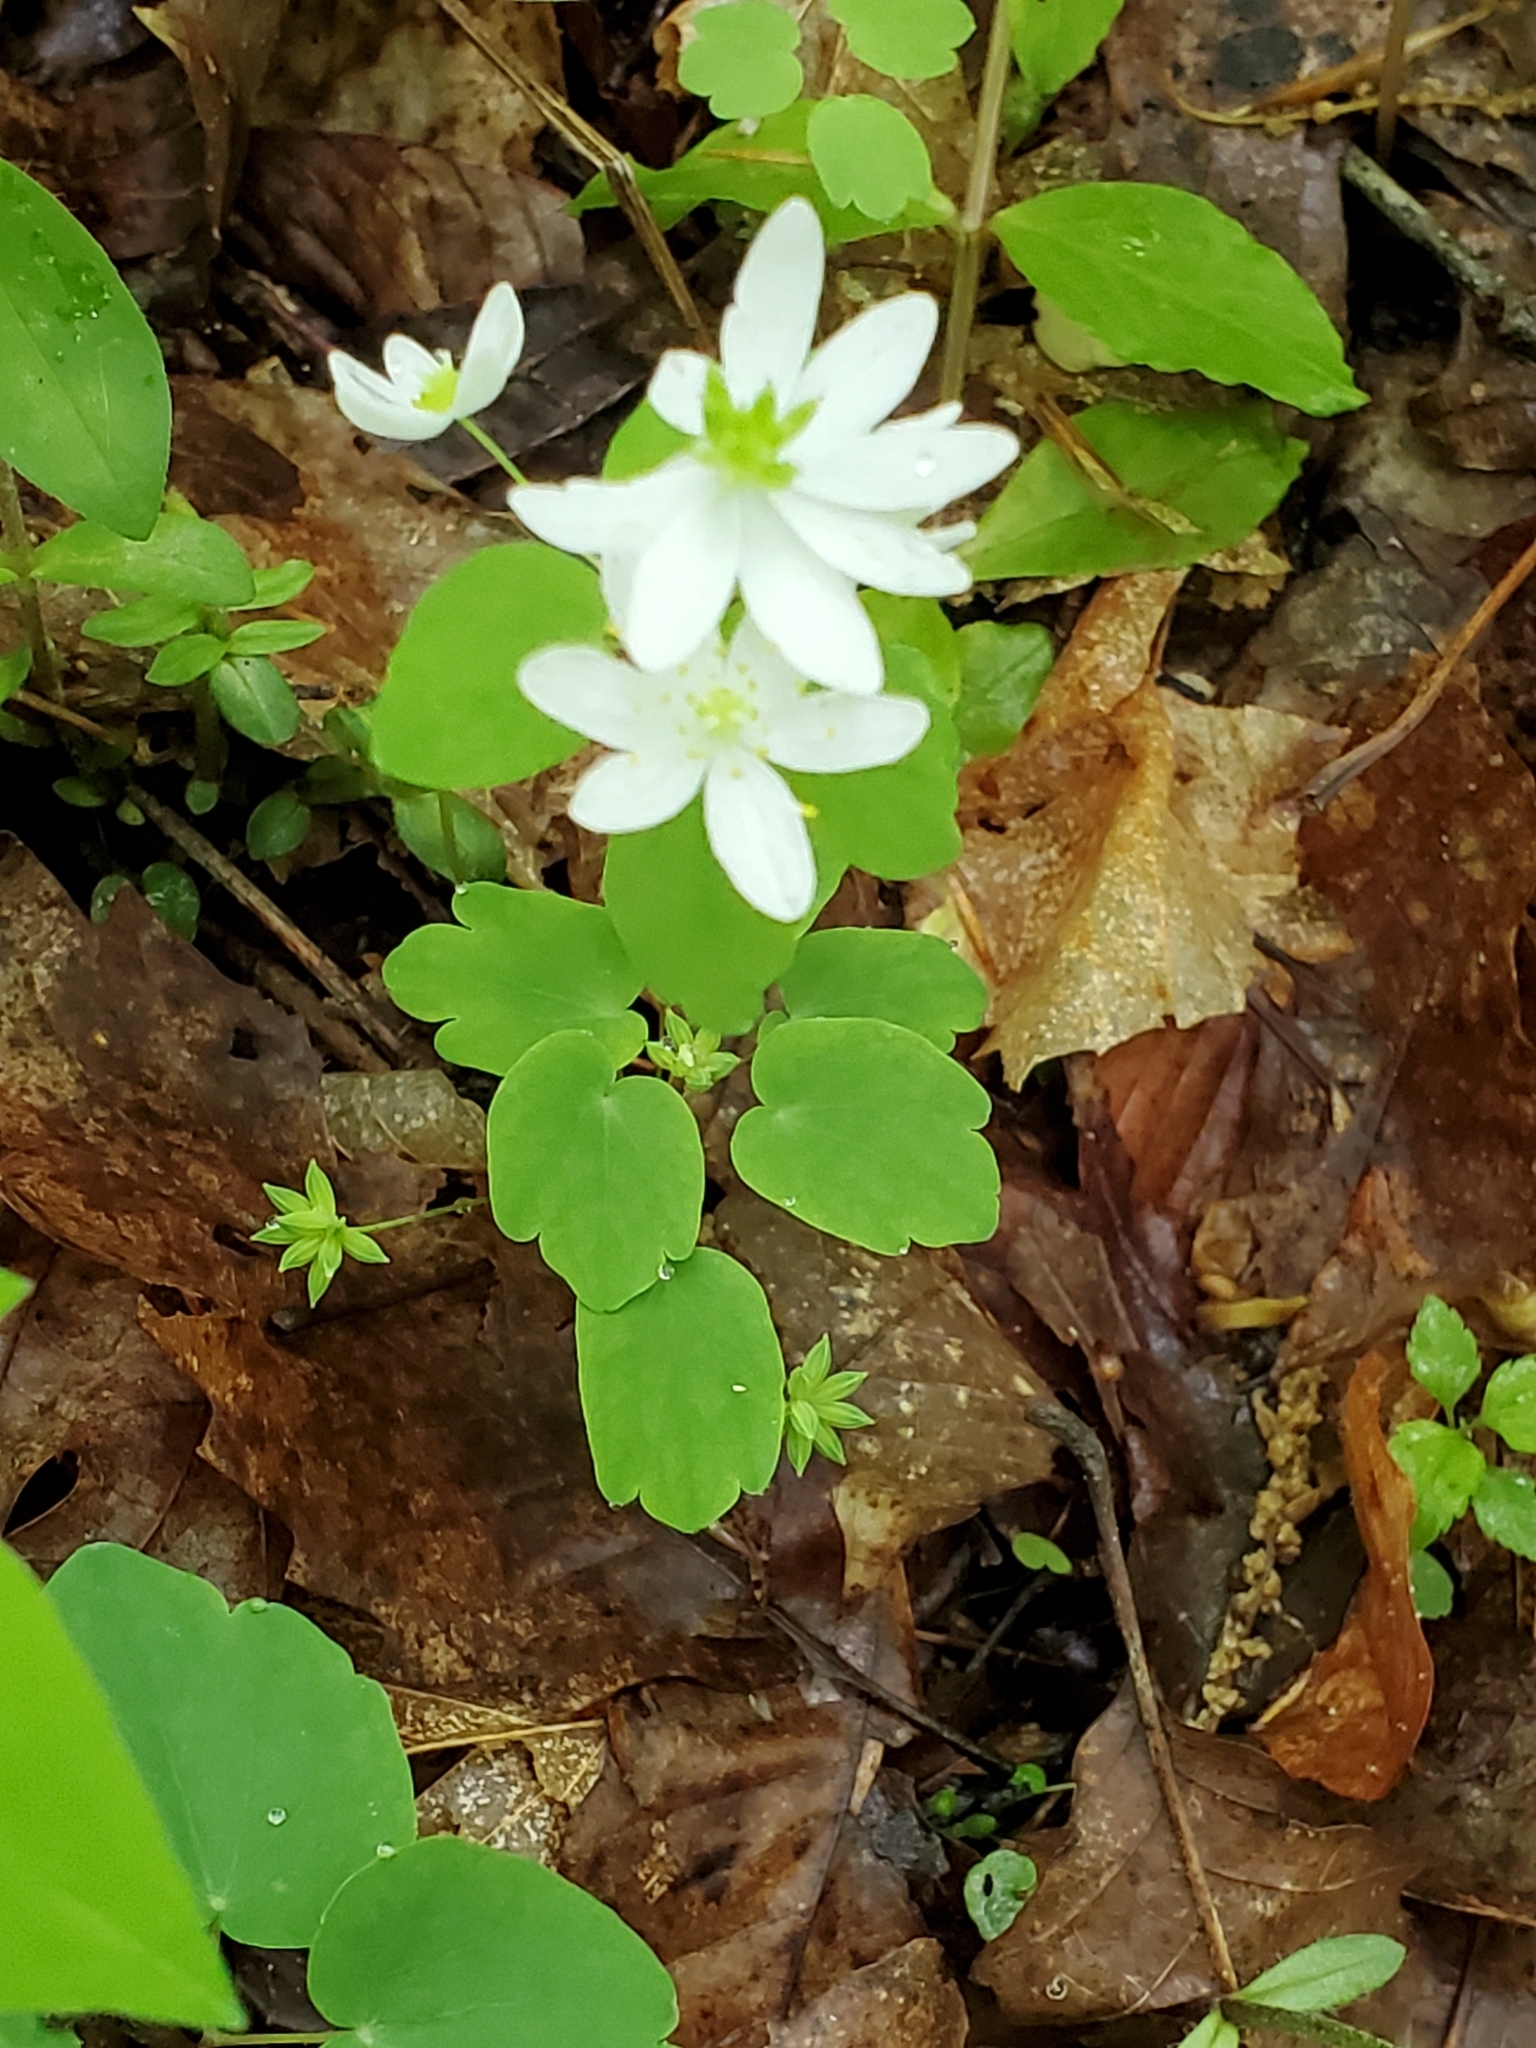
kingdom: Plantae
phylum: Tracheophyta
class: Magnoliopsida
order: Ranunculales
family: Ranunculaceae
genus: Thalictrum
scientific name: Thalictrum thalictroides
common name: Rue-anemone
